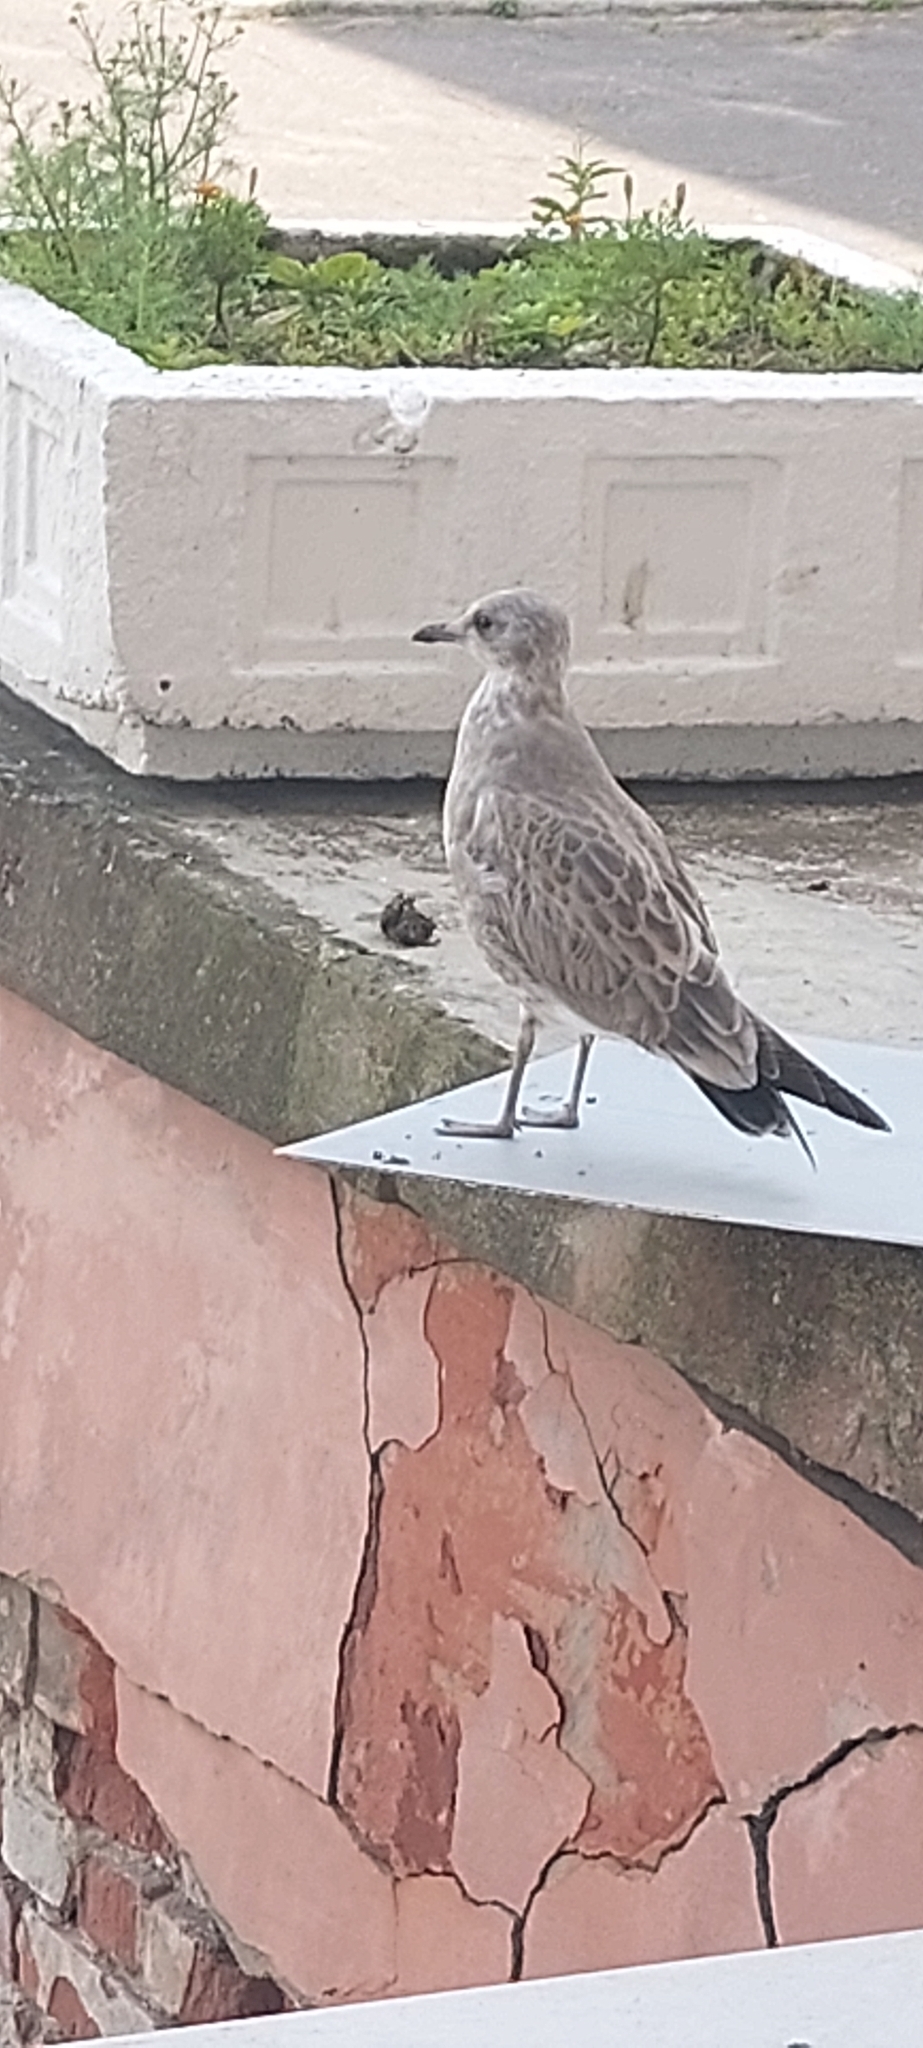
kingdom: Animalia
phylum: Chordata
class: Aves
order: Charadriiformes
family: Laridae
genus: Larus
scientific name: Larus canus
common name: Mew gull
